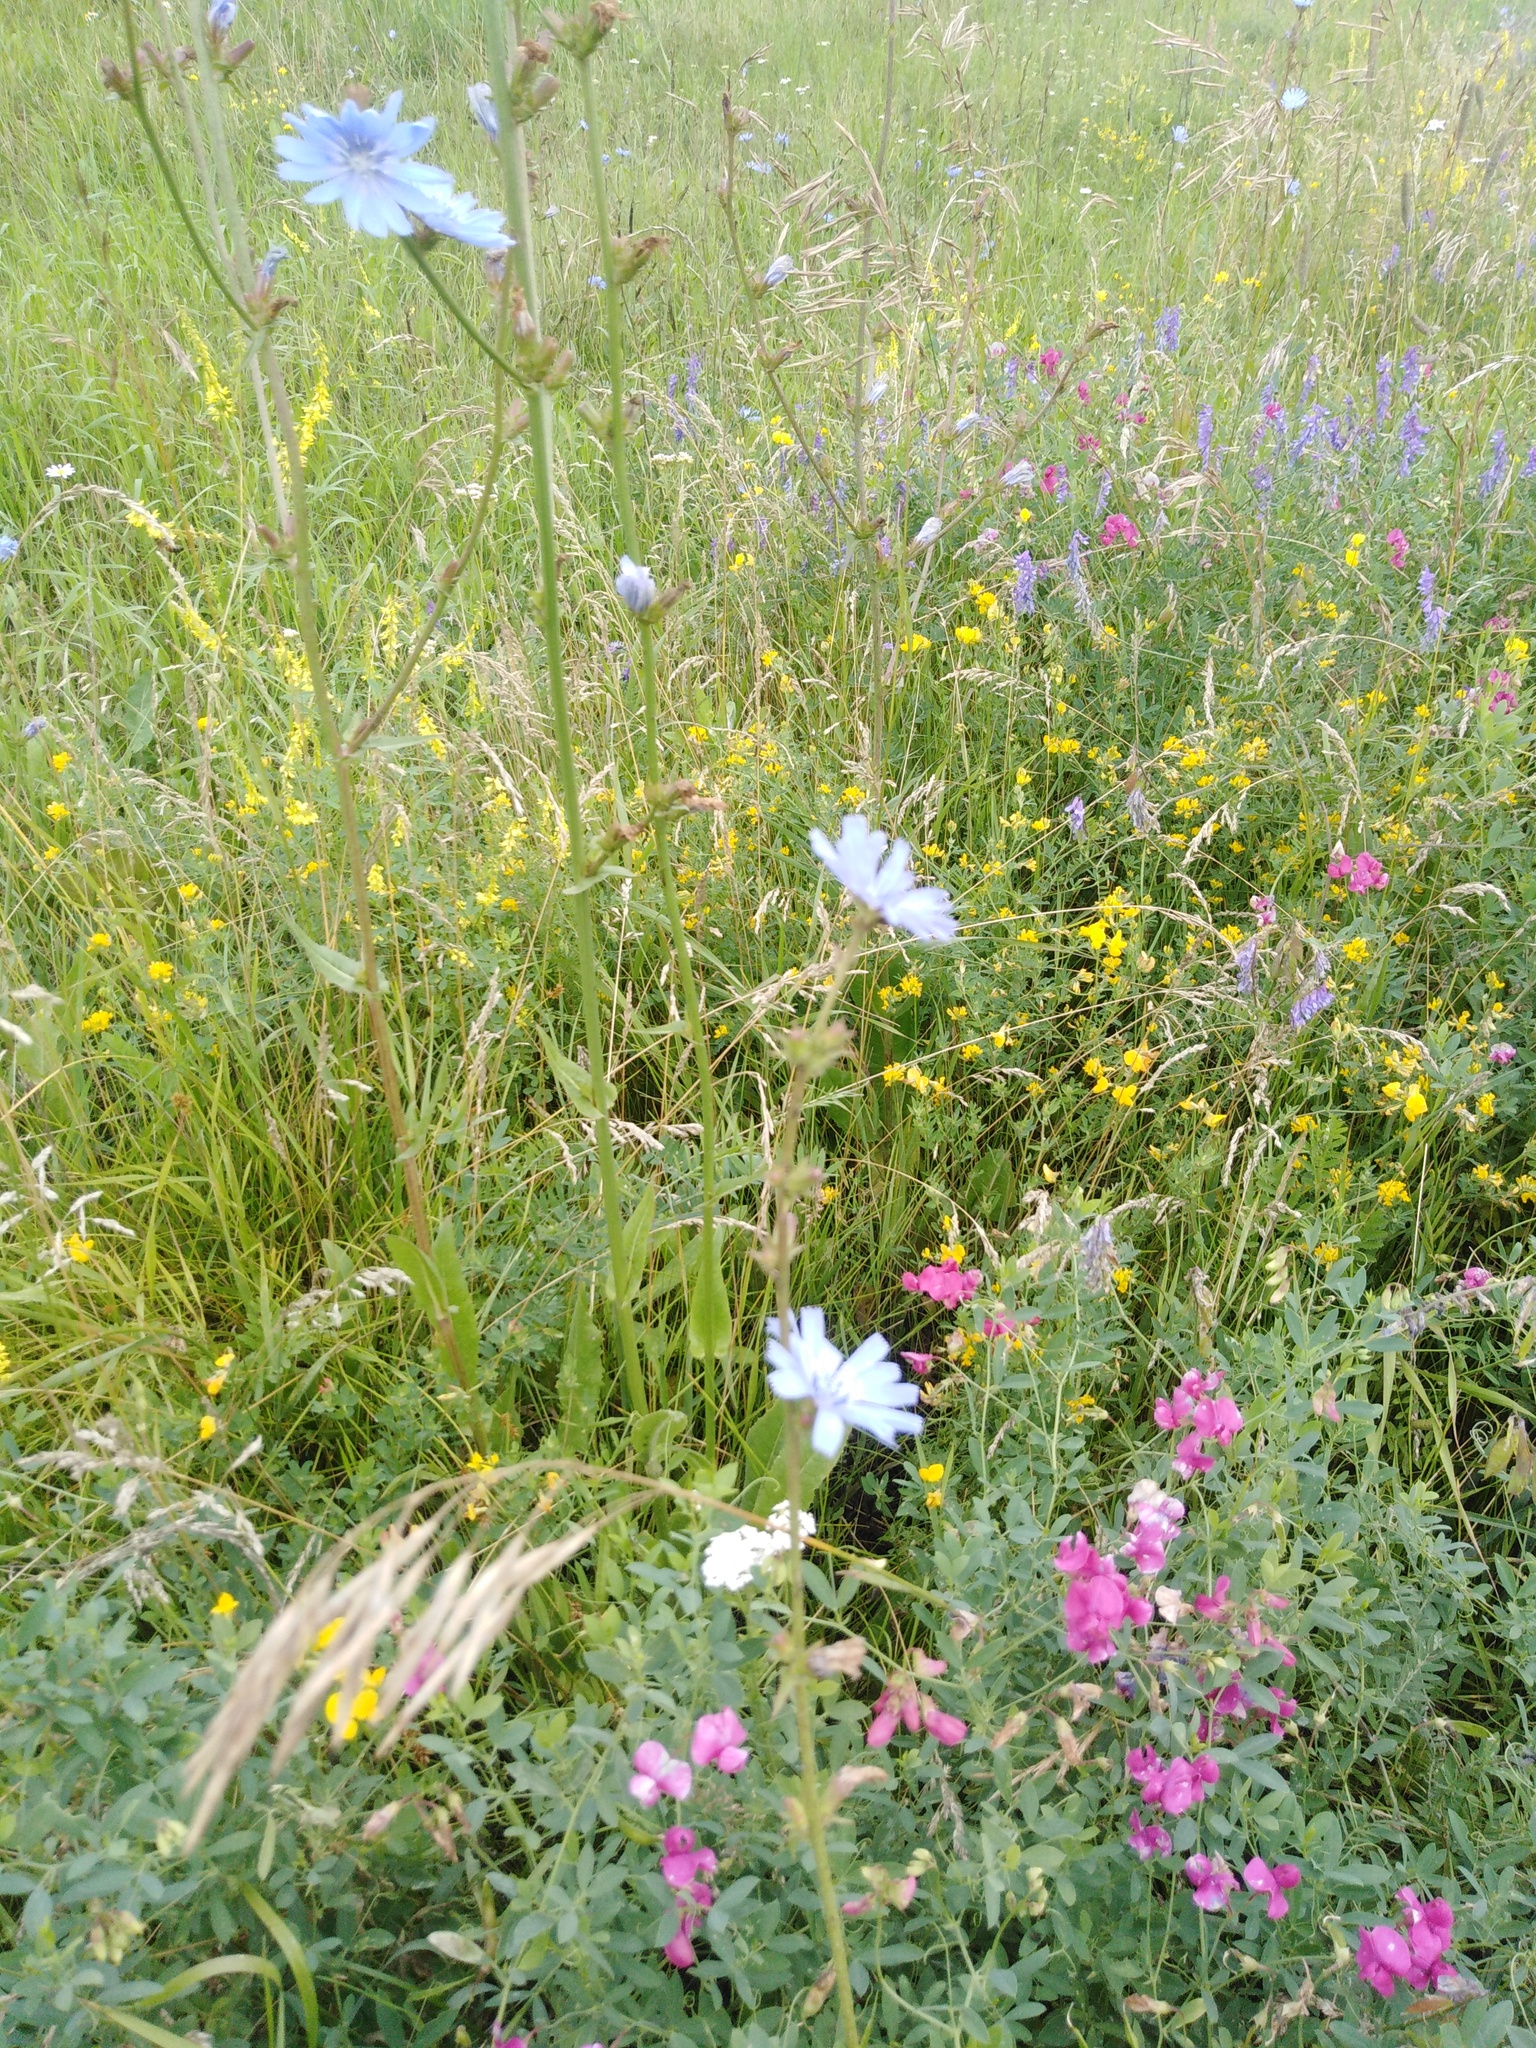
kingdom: Plantae
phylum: Tracheophyta
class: Magnoliopsida
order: Asterales
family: Asteraceae
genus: Cichorium
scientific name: Cichorium intybus
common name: Chicory
